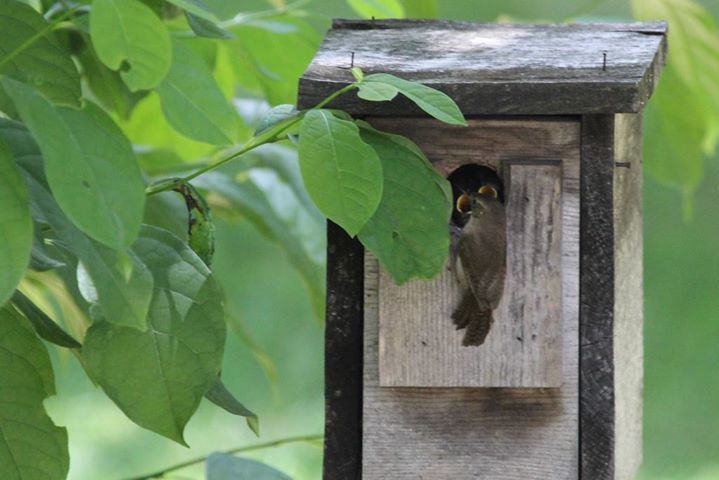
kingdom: Animalia
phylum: Chordata
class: Aves
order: Passeriformes
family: Troglodytidae
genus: Troglodytes
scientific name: Troglodytes aedon
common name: House wren
